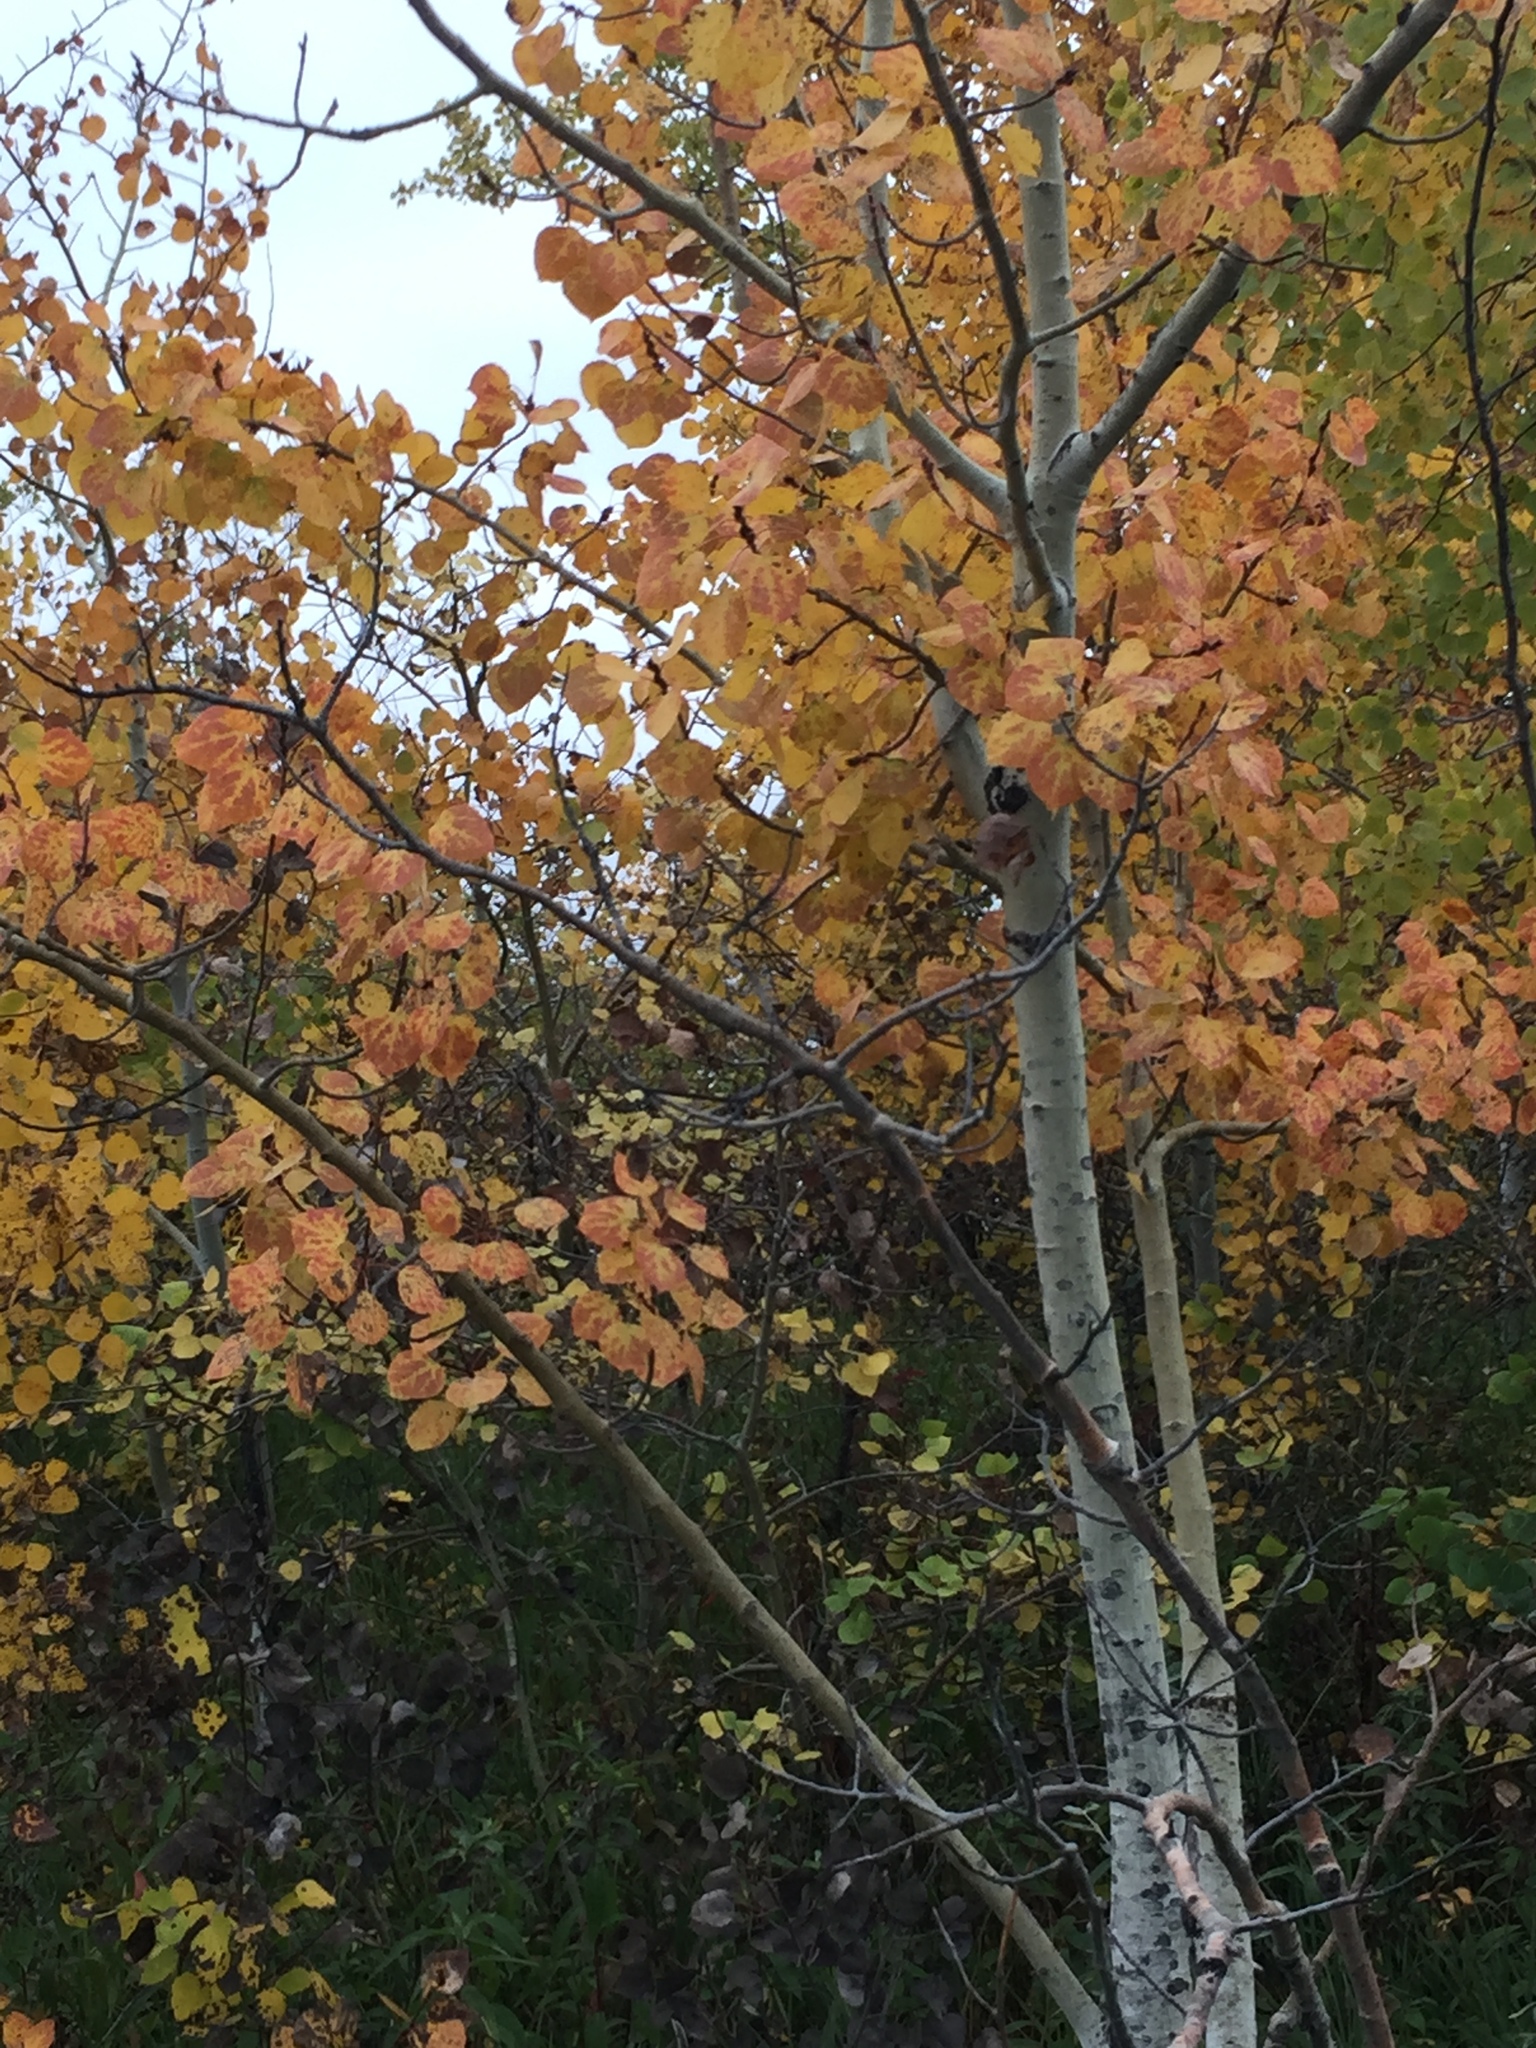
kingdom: Plantae
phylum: Tracheophyta
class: Magnoliopsida
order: Malpighiales
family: Salicaceae
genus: Populus
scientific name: Populus tremuloides
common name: Quaking aspen
